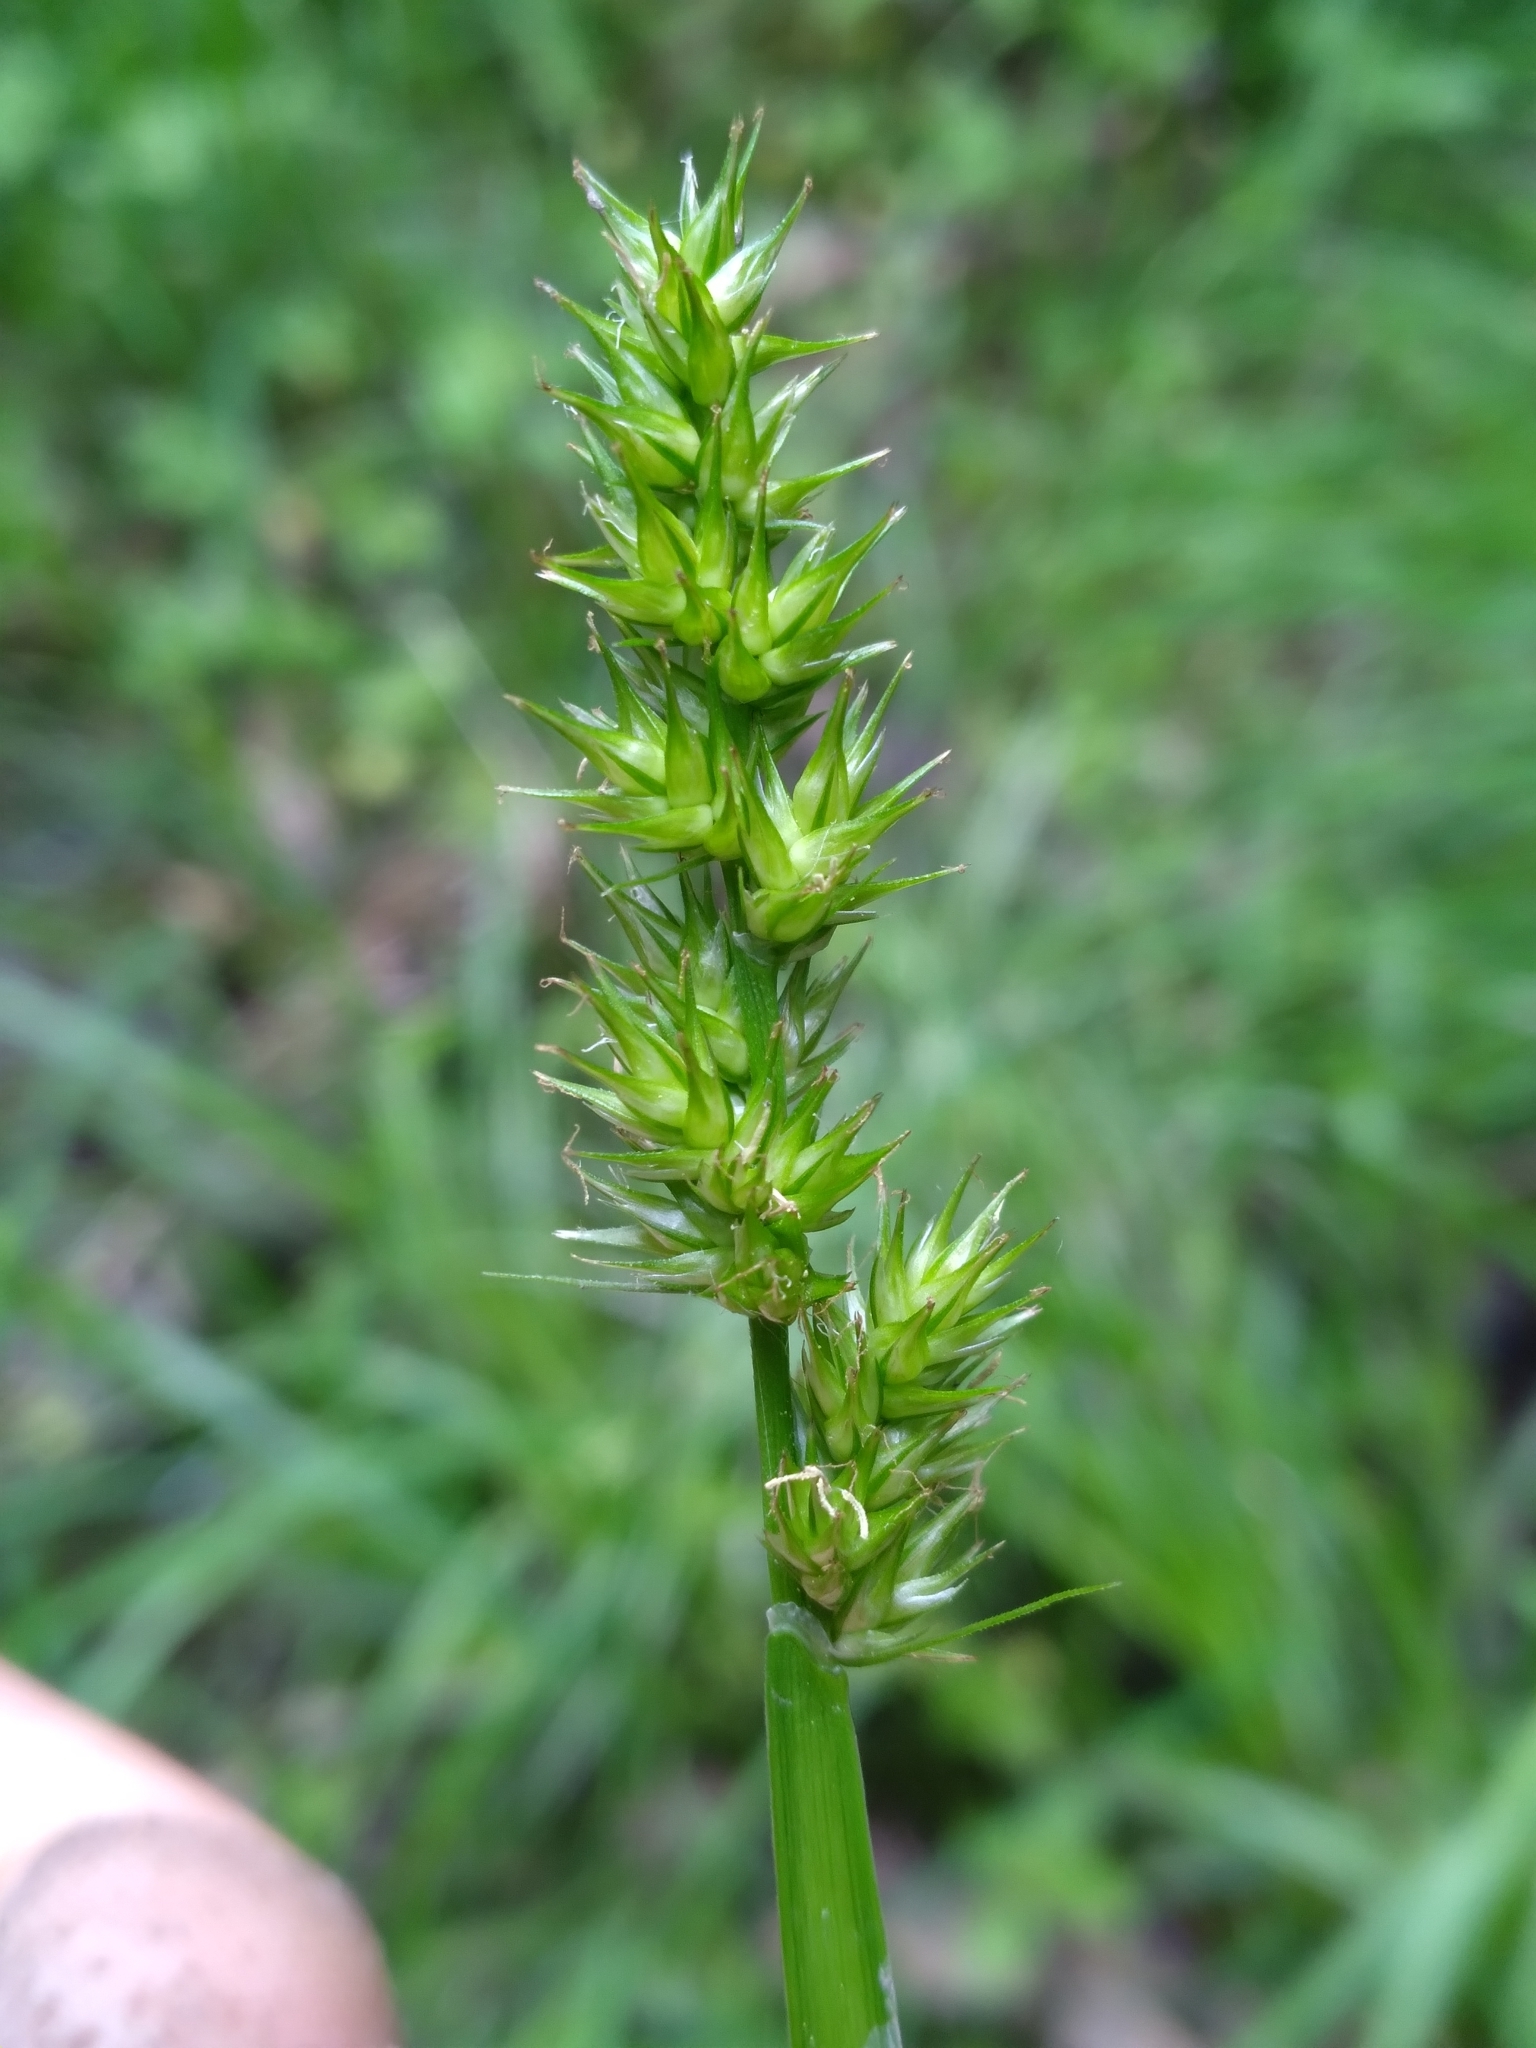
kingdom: Plantae
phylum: Tracheophyta
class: Liliopsida
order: Poales
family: Cyperaceae
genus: Carex
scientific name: Carex laevivaginata
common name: Smooth-sheathed fox sedge
